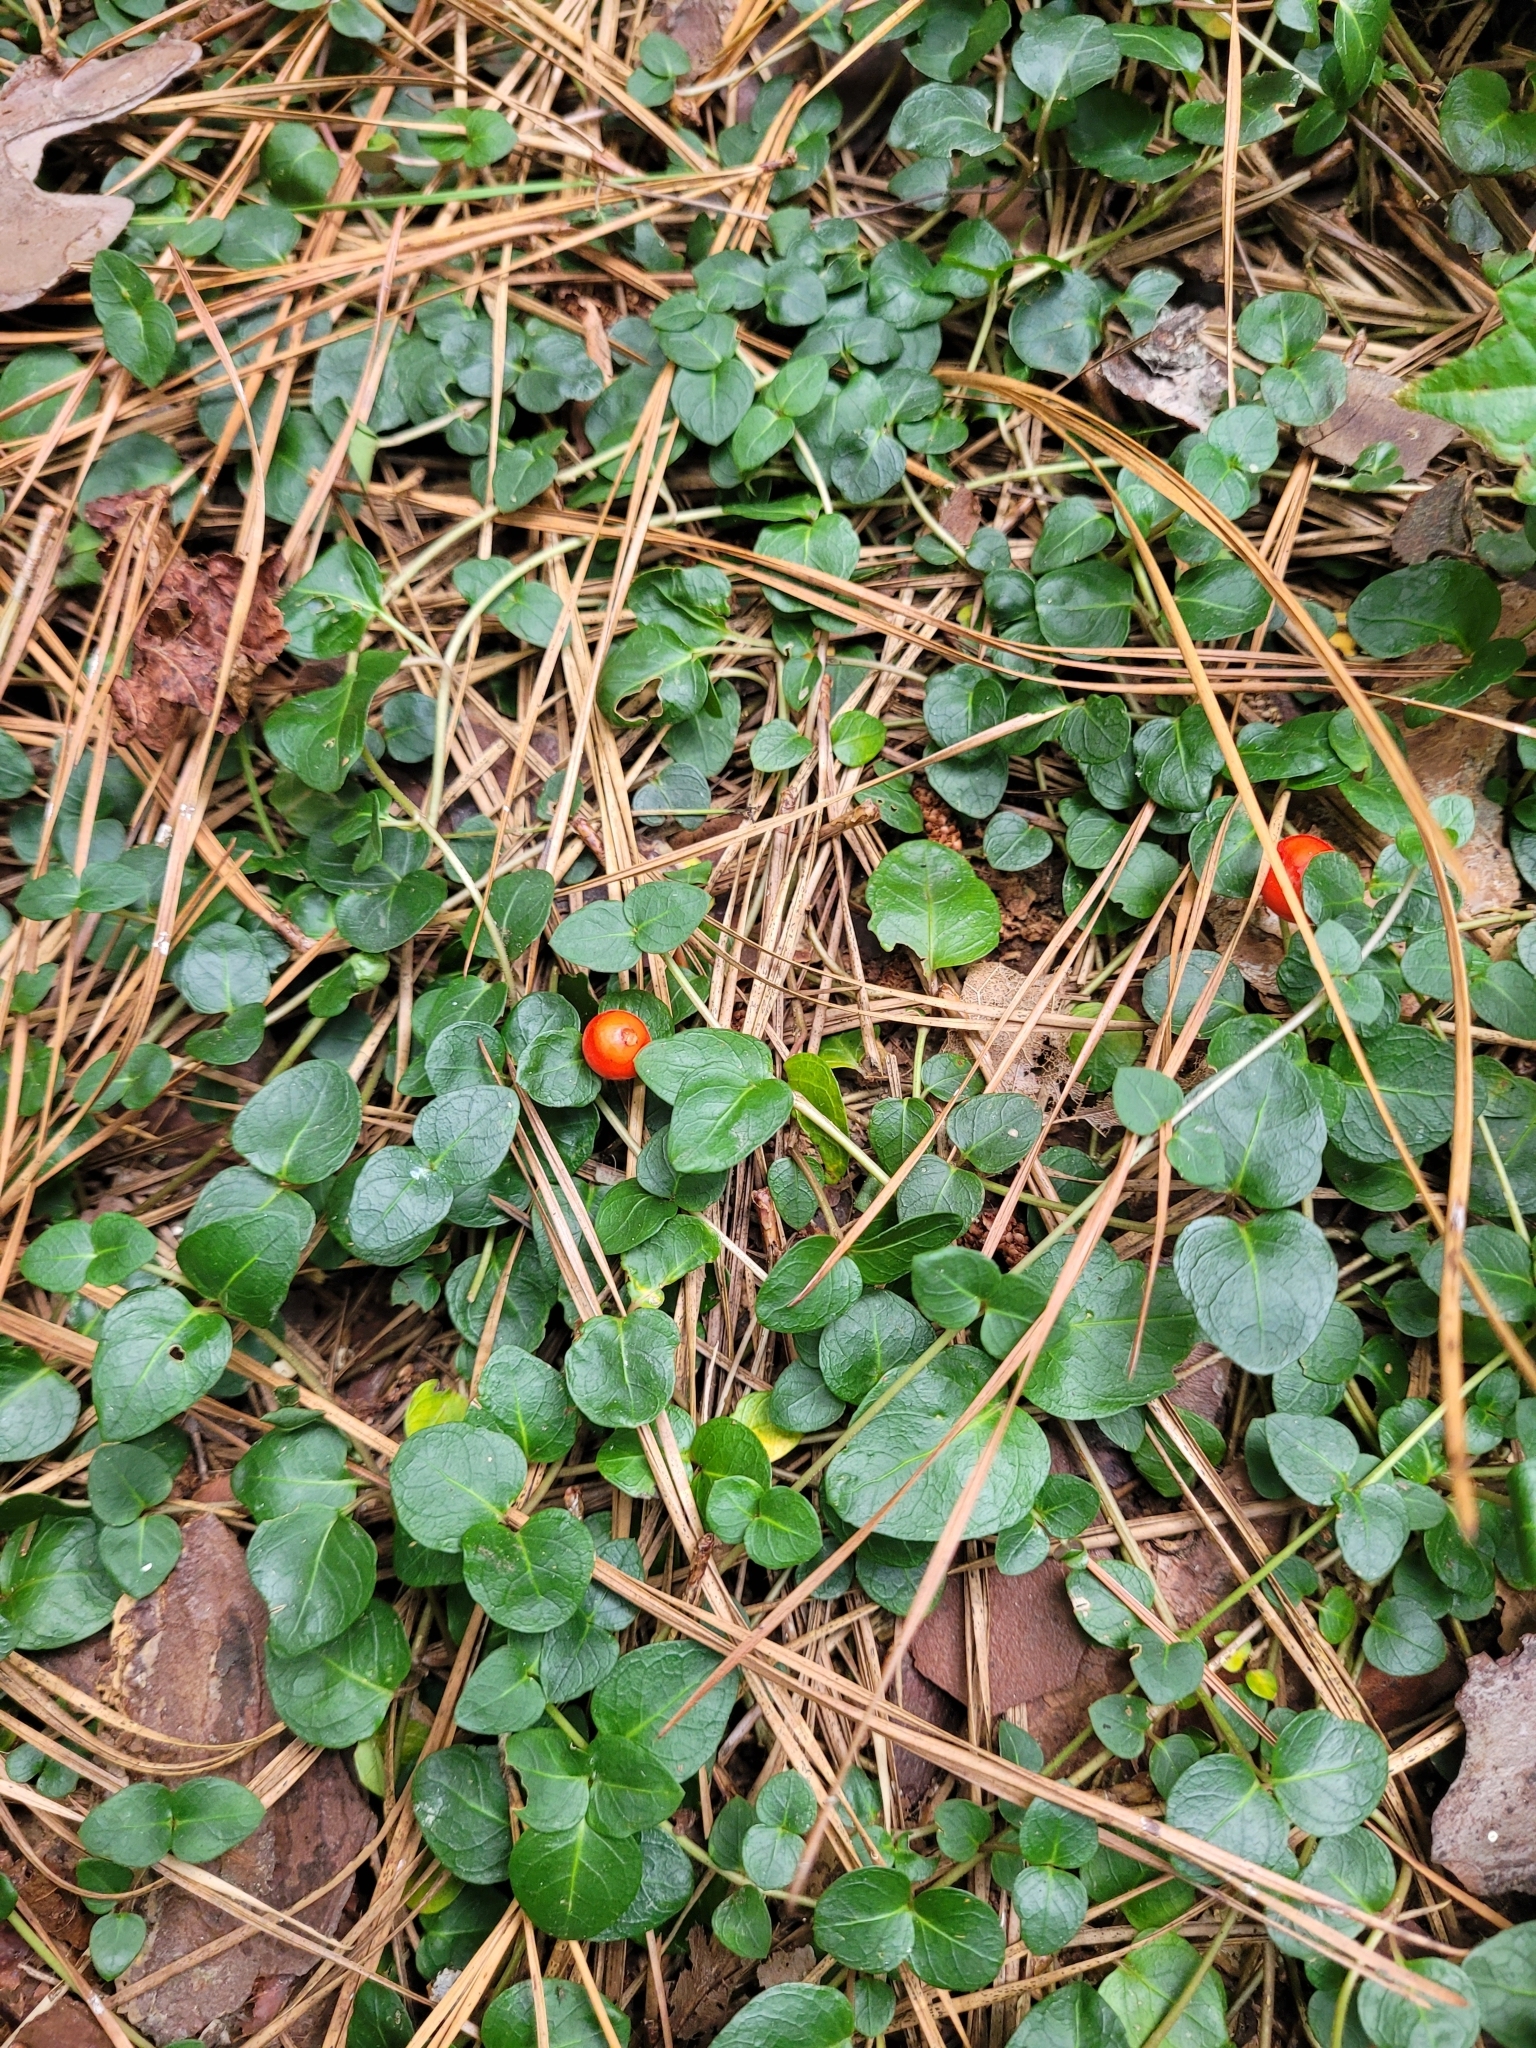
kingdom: Plantae
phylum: Tracheophyta
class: Magnoliopsida
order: Gentianales
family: Rubiaceae
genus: Mitchella
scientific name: Mitchella repens
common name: Partridge-berry
